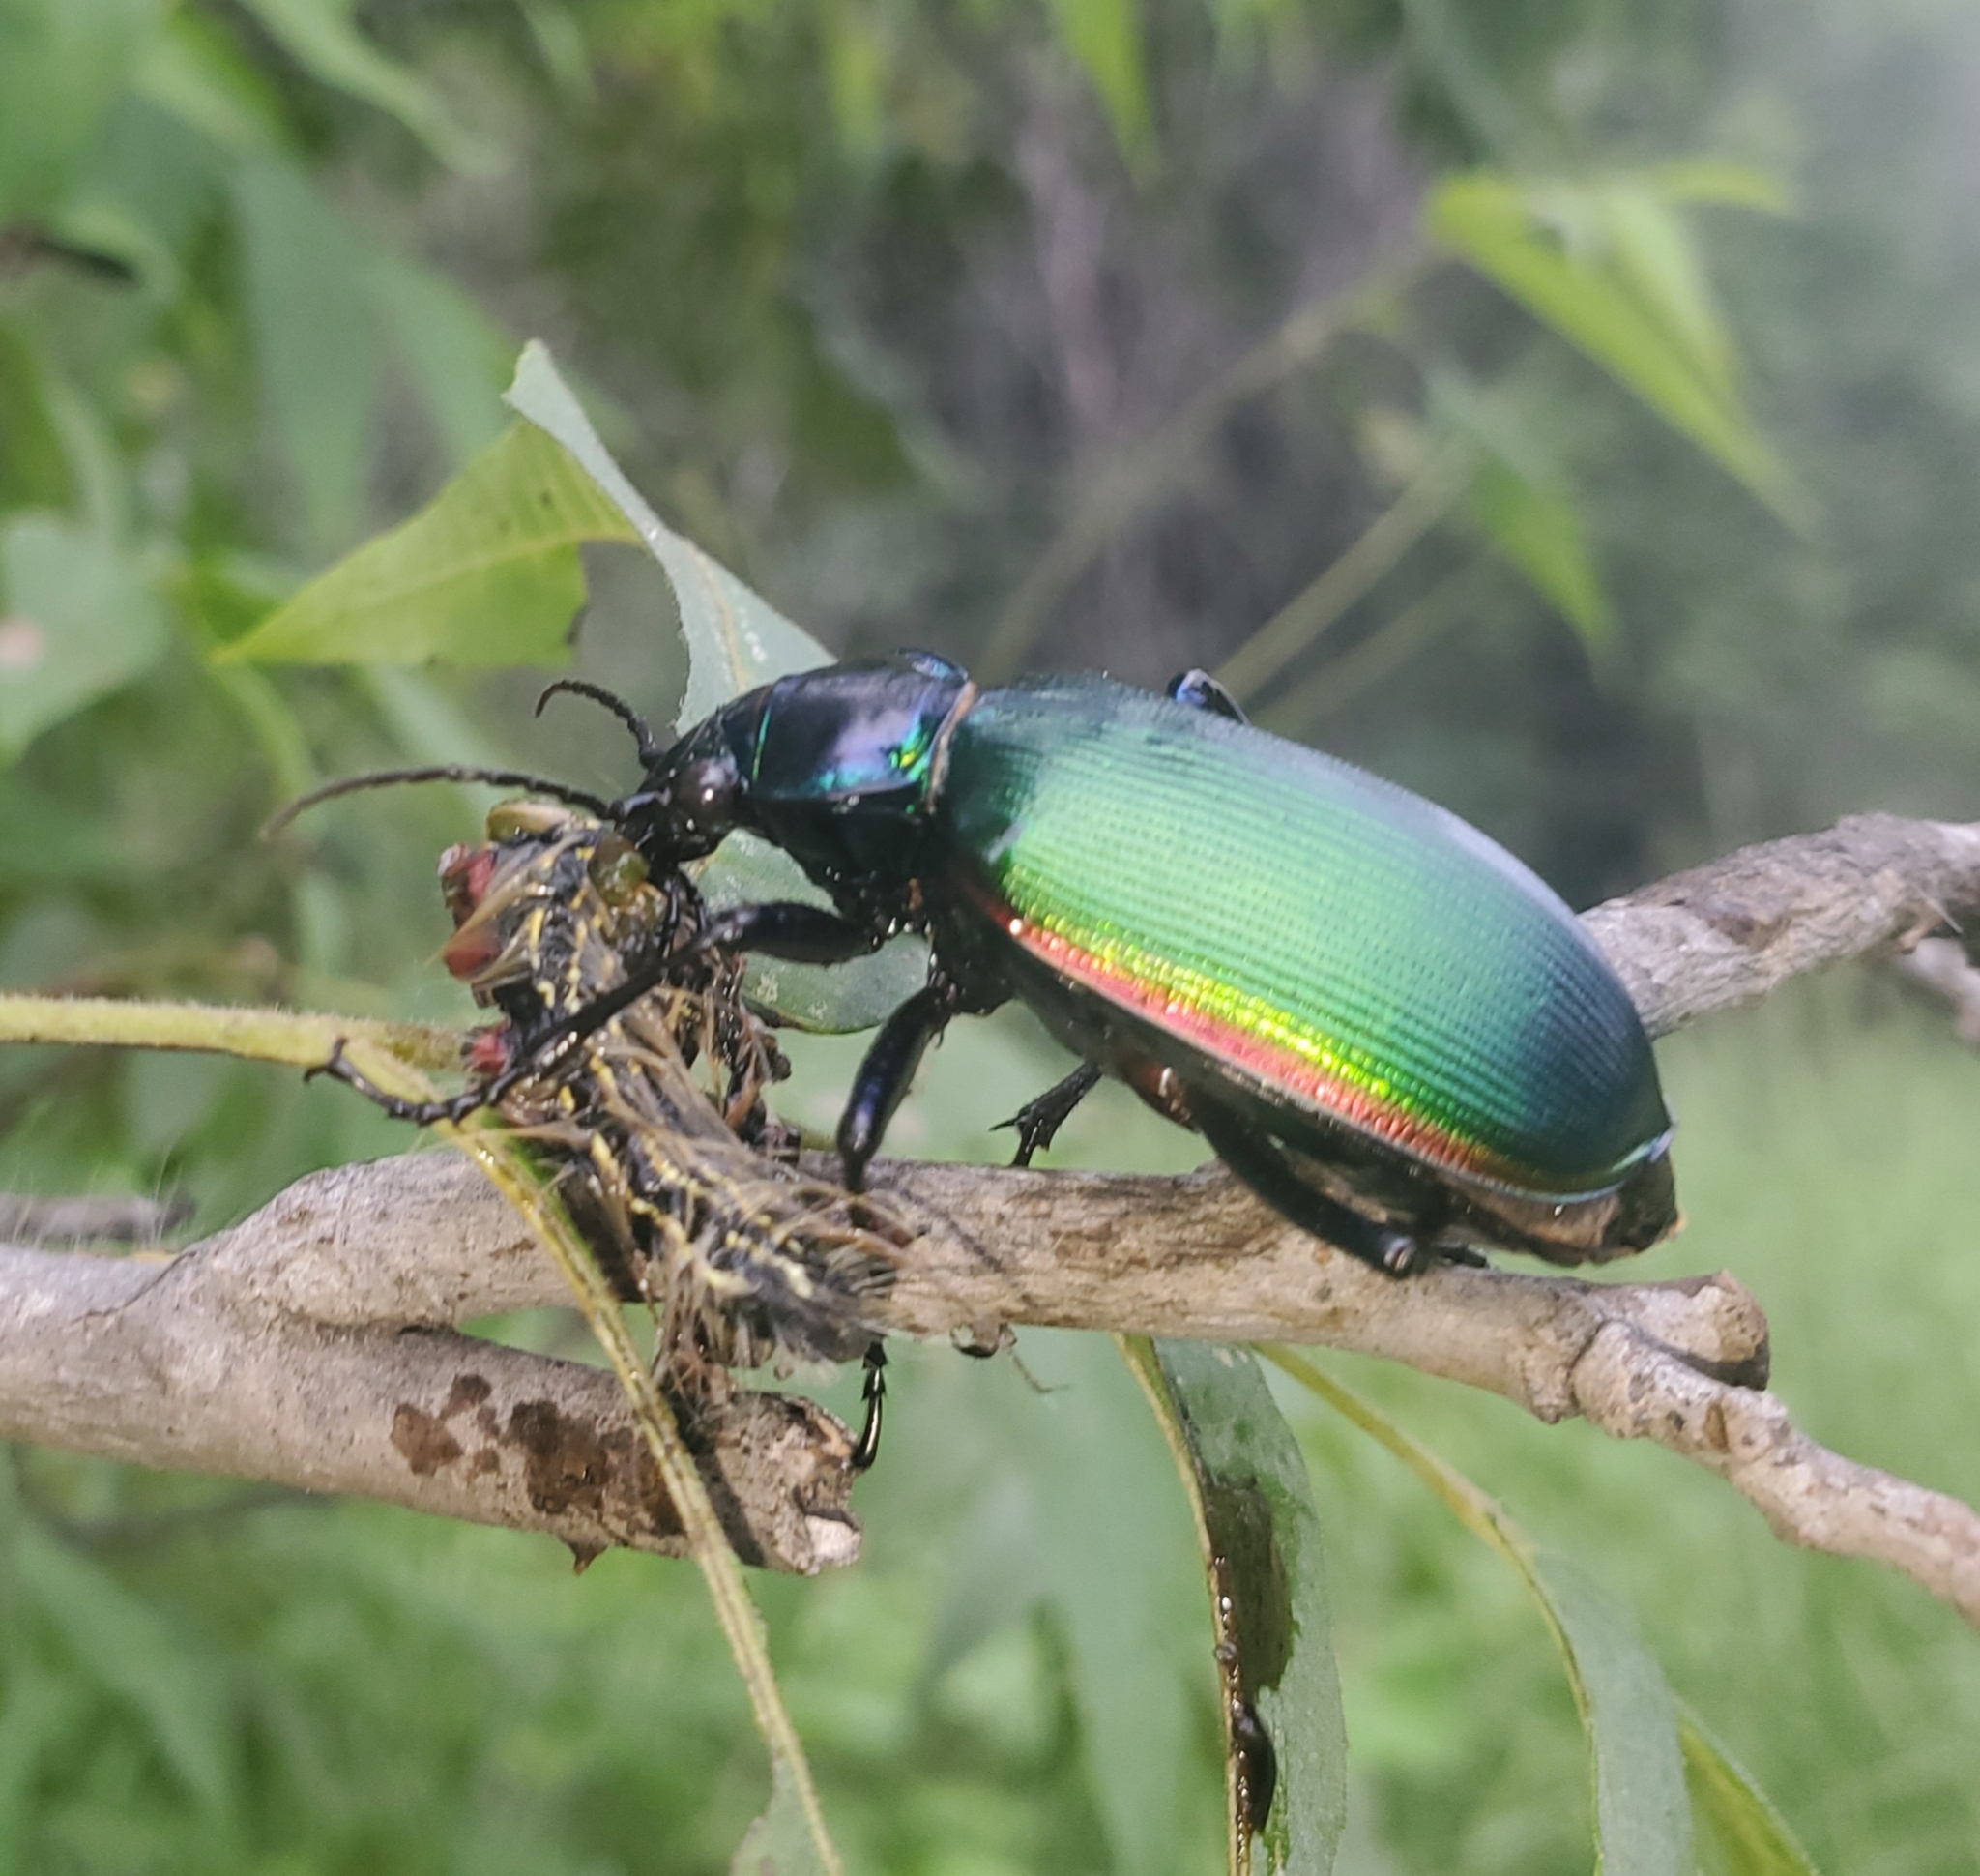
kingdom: Animalia
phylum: Arthropoda
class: Insecta
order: Coleoptera
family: Carabidae
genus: Calosoma
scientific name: Calosoma scrutator
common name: Fiery searcher beetle
